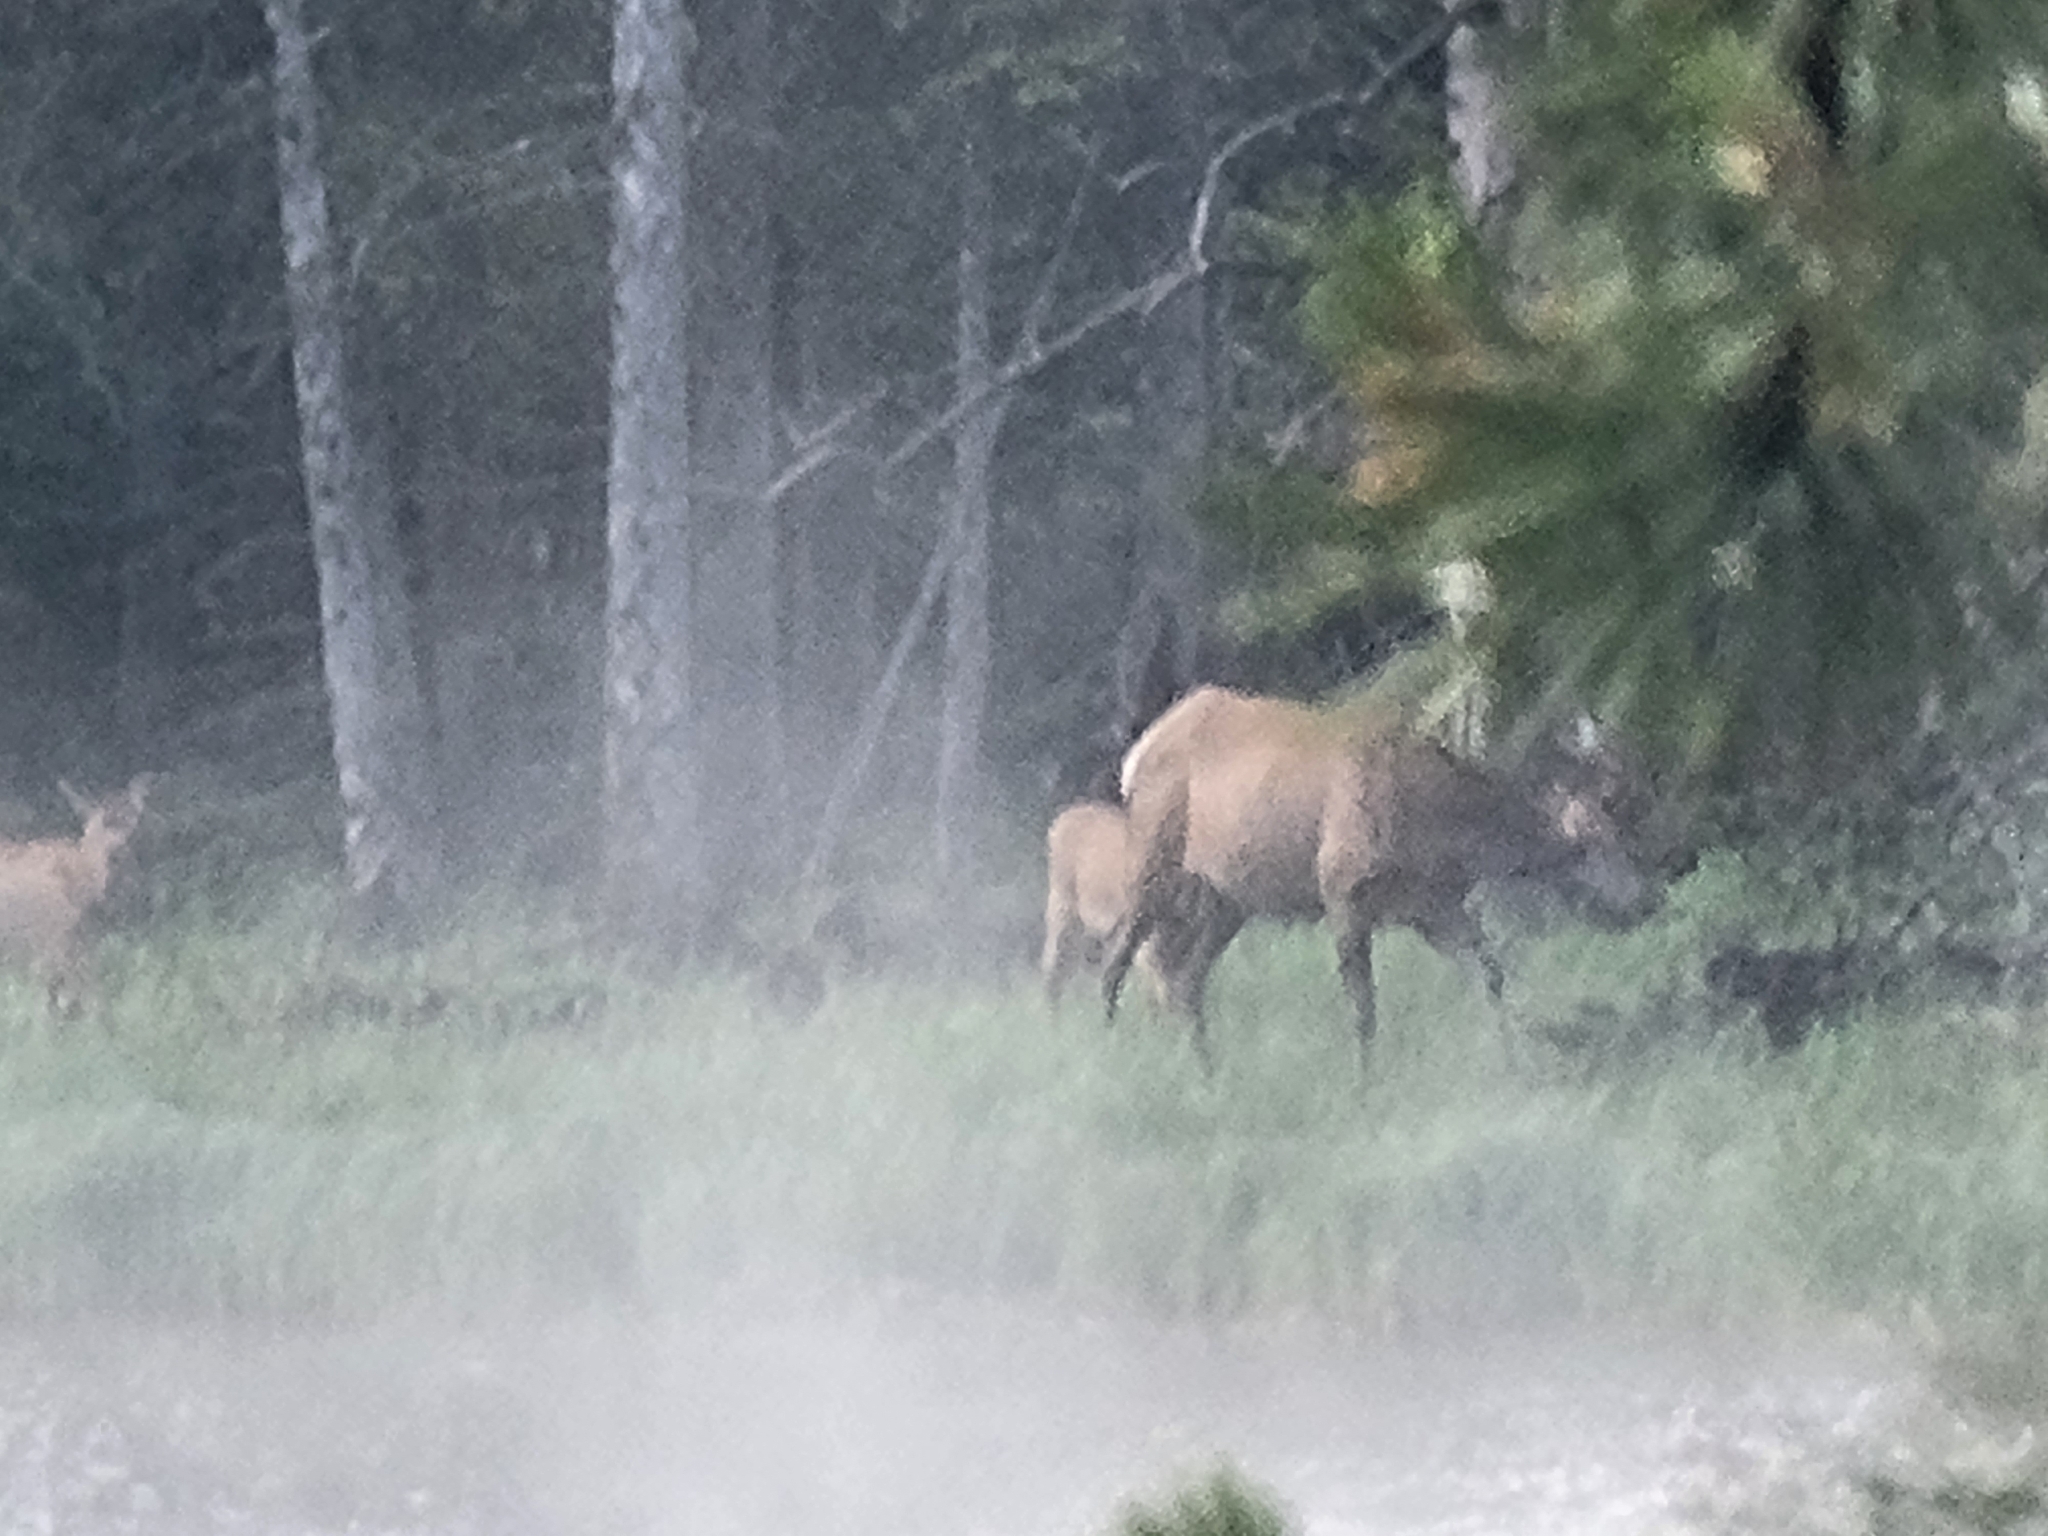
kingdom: Animalia
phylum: Chordata
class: Mammalia
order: Artiodactyla
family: Cervidae
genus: Cervus
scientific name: Cervus elaphus
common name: Red deer
